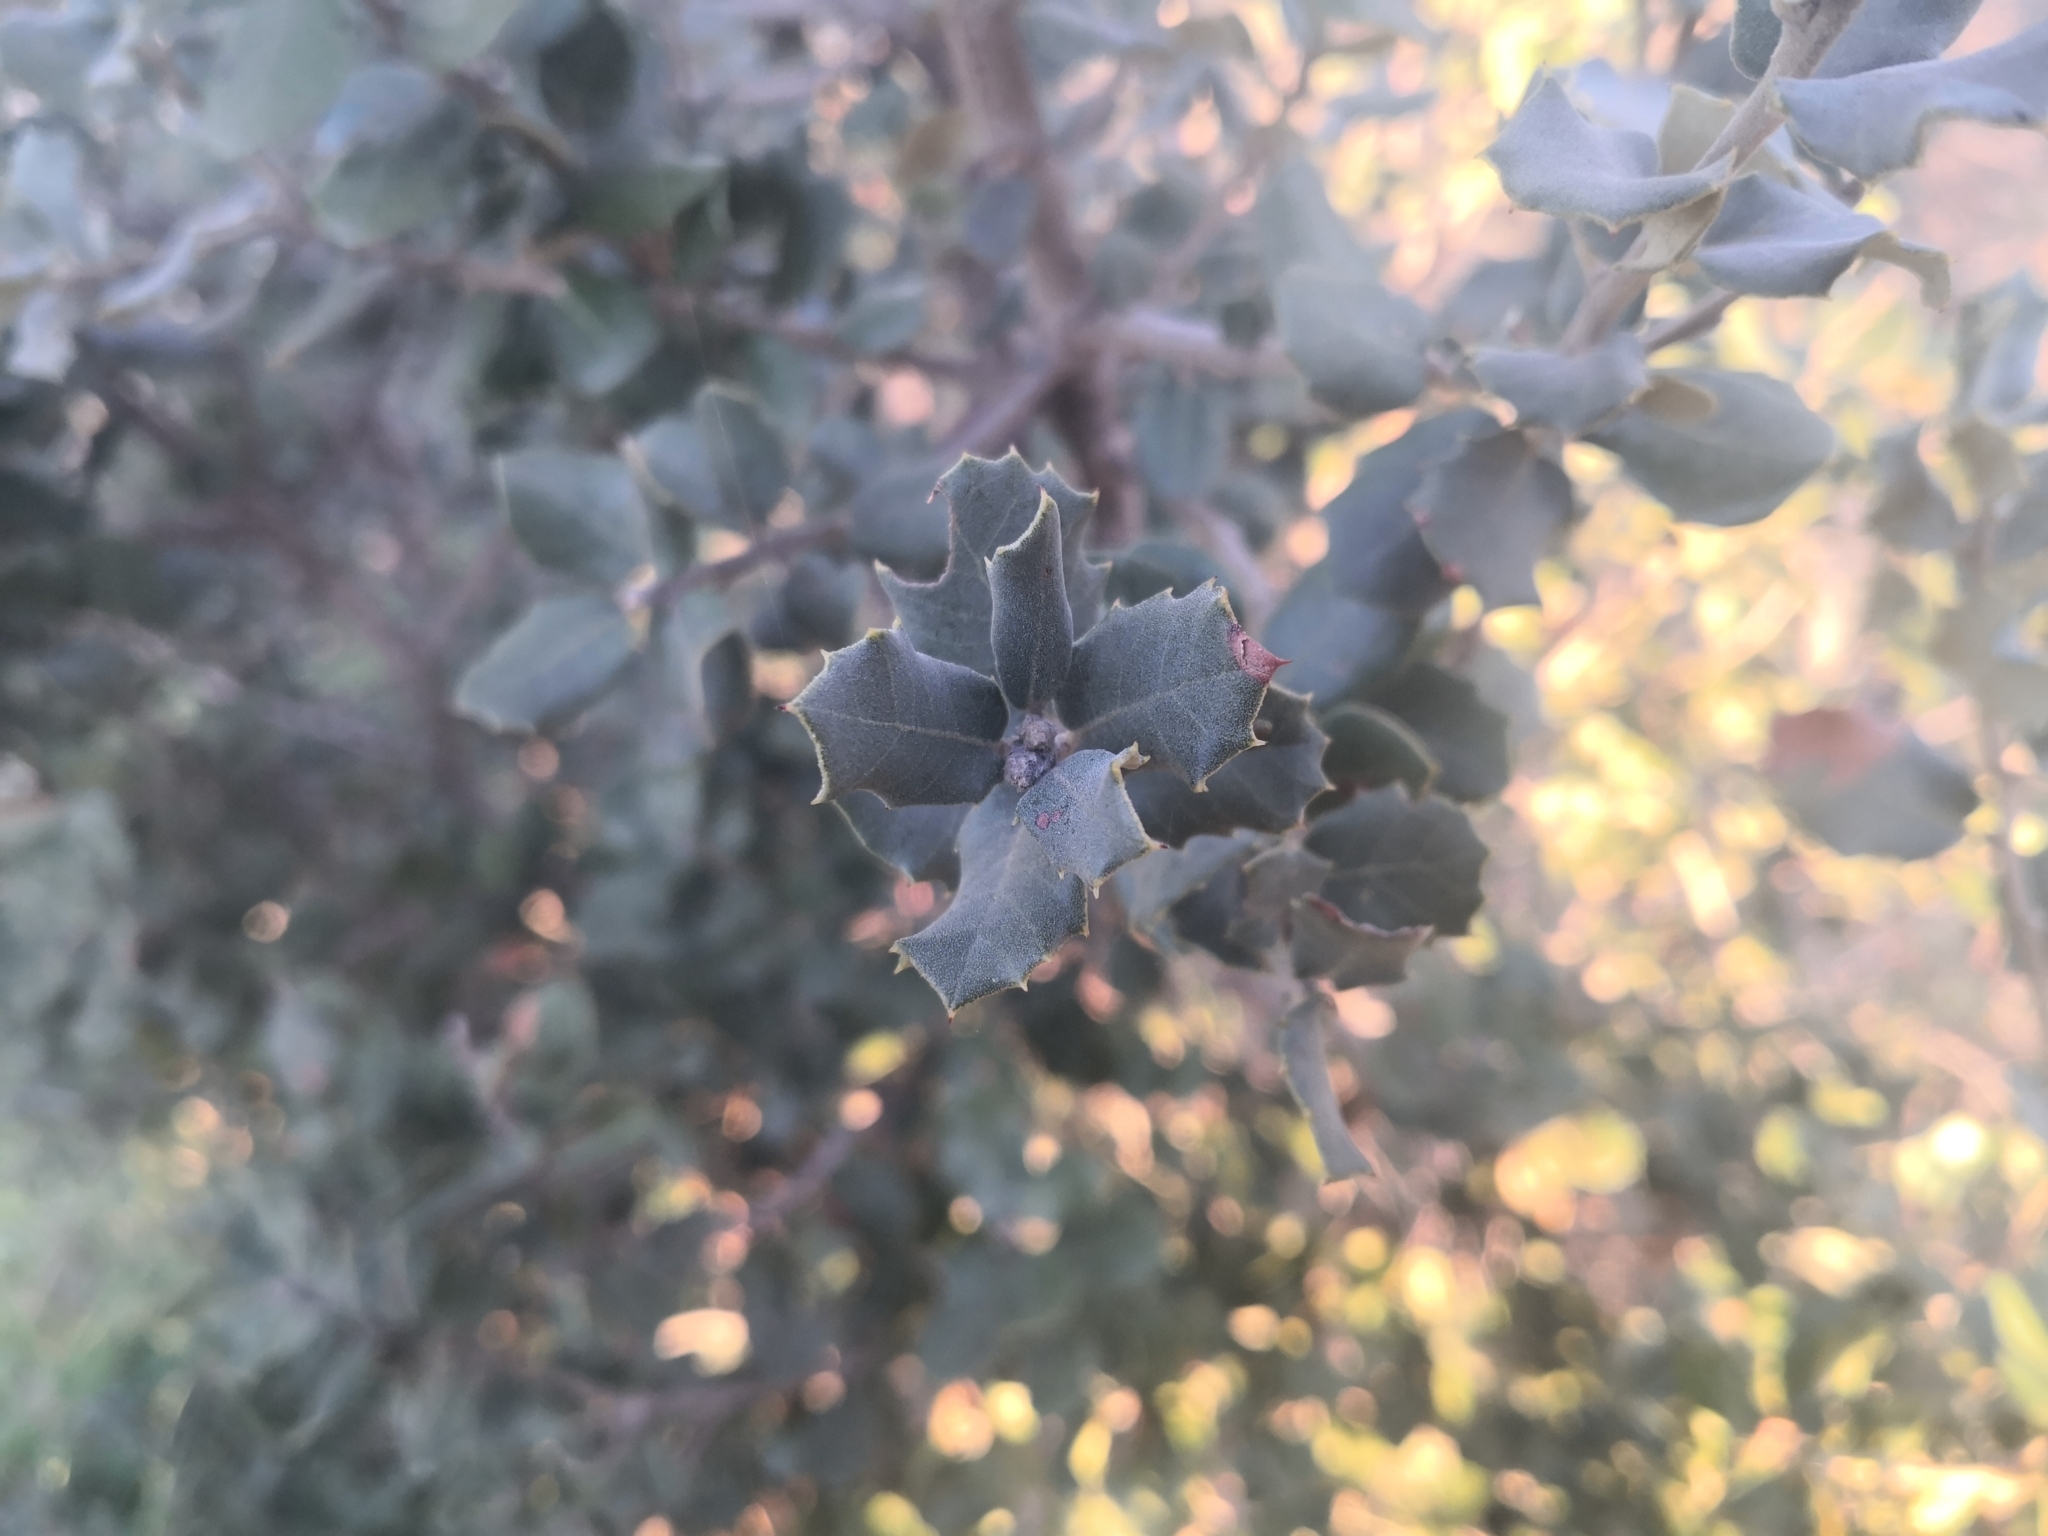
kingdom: Plantae
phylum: Tracheophyta
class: Magnoliopsida
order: Fagales
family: Fagaceae
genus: Quercus
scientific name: Quercus rotundifolia
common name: Holm oak
